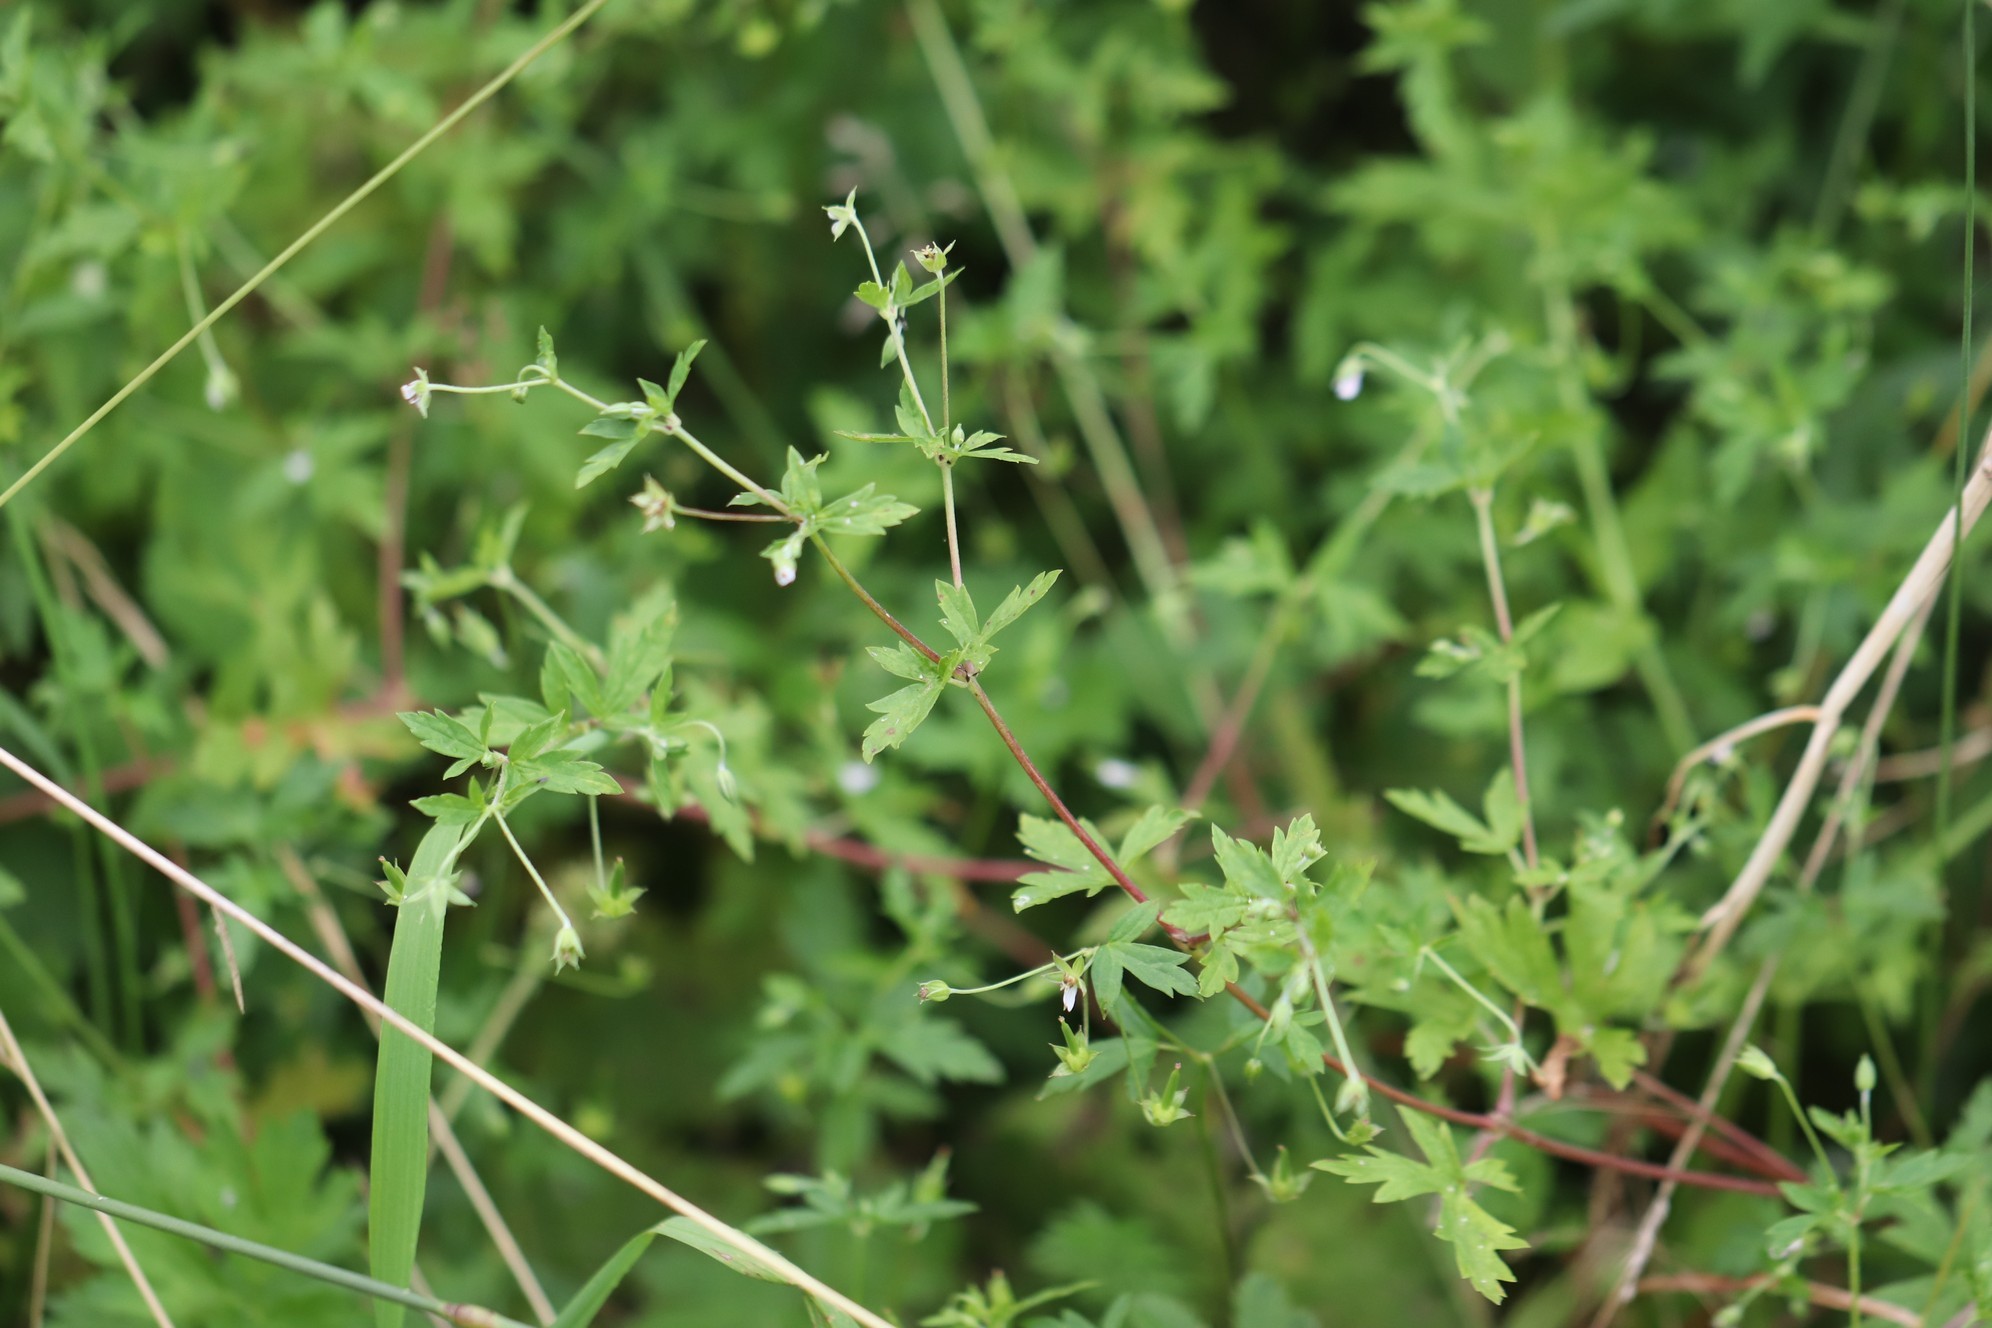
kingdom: Plantae
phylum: Tracheophyta
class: Magnoliopsida
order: Geraniales
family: Geraniaceae
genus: Geranium
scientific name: Geranium sibiricum
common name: Siberian crane's-bill
